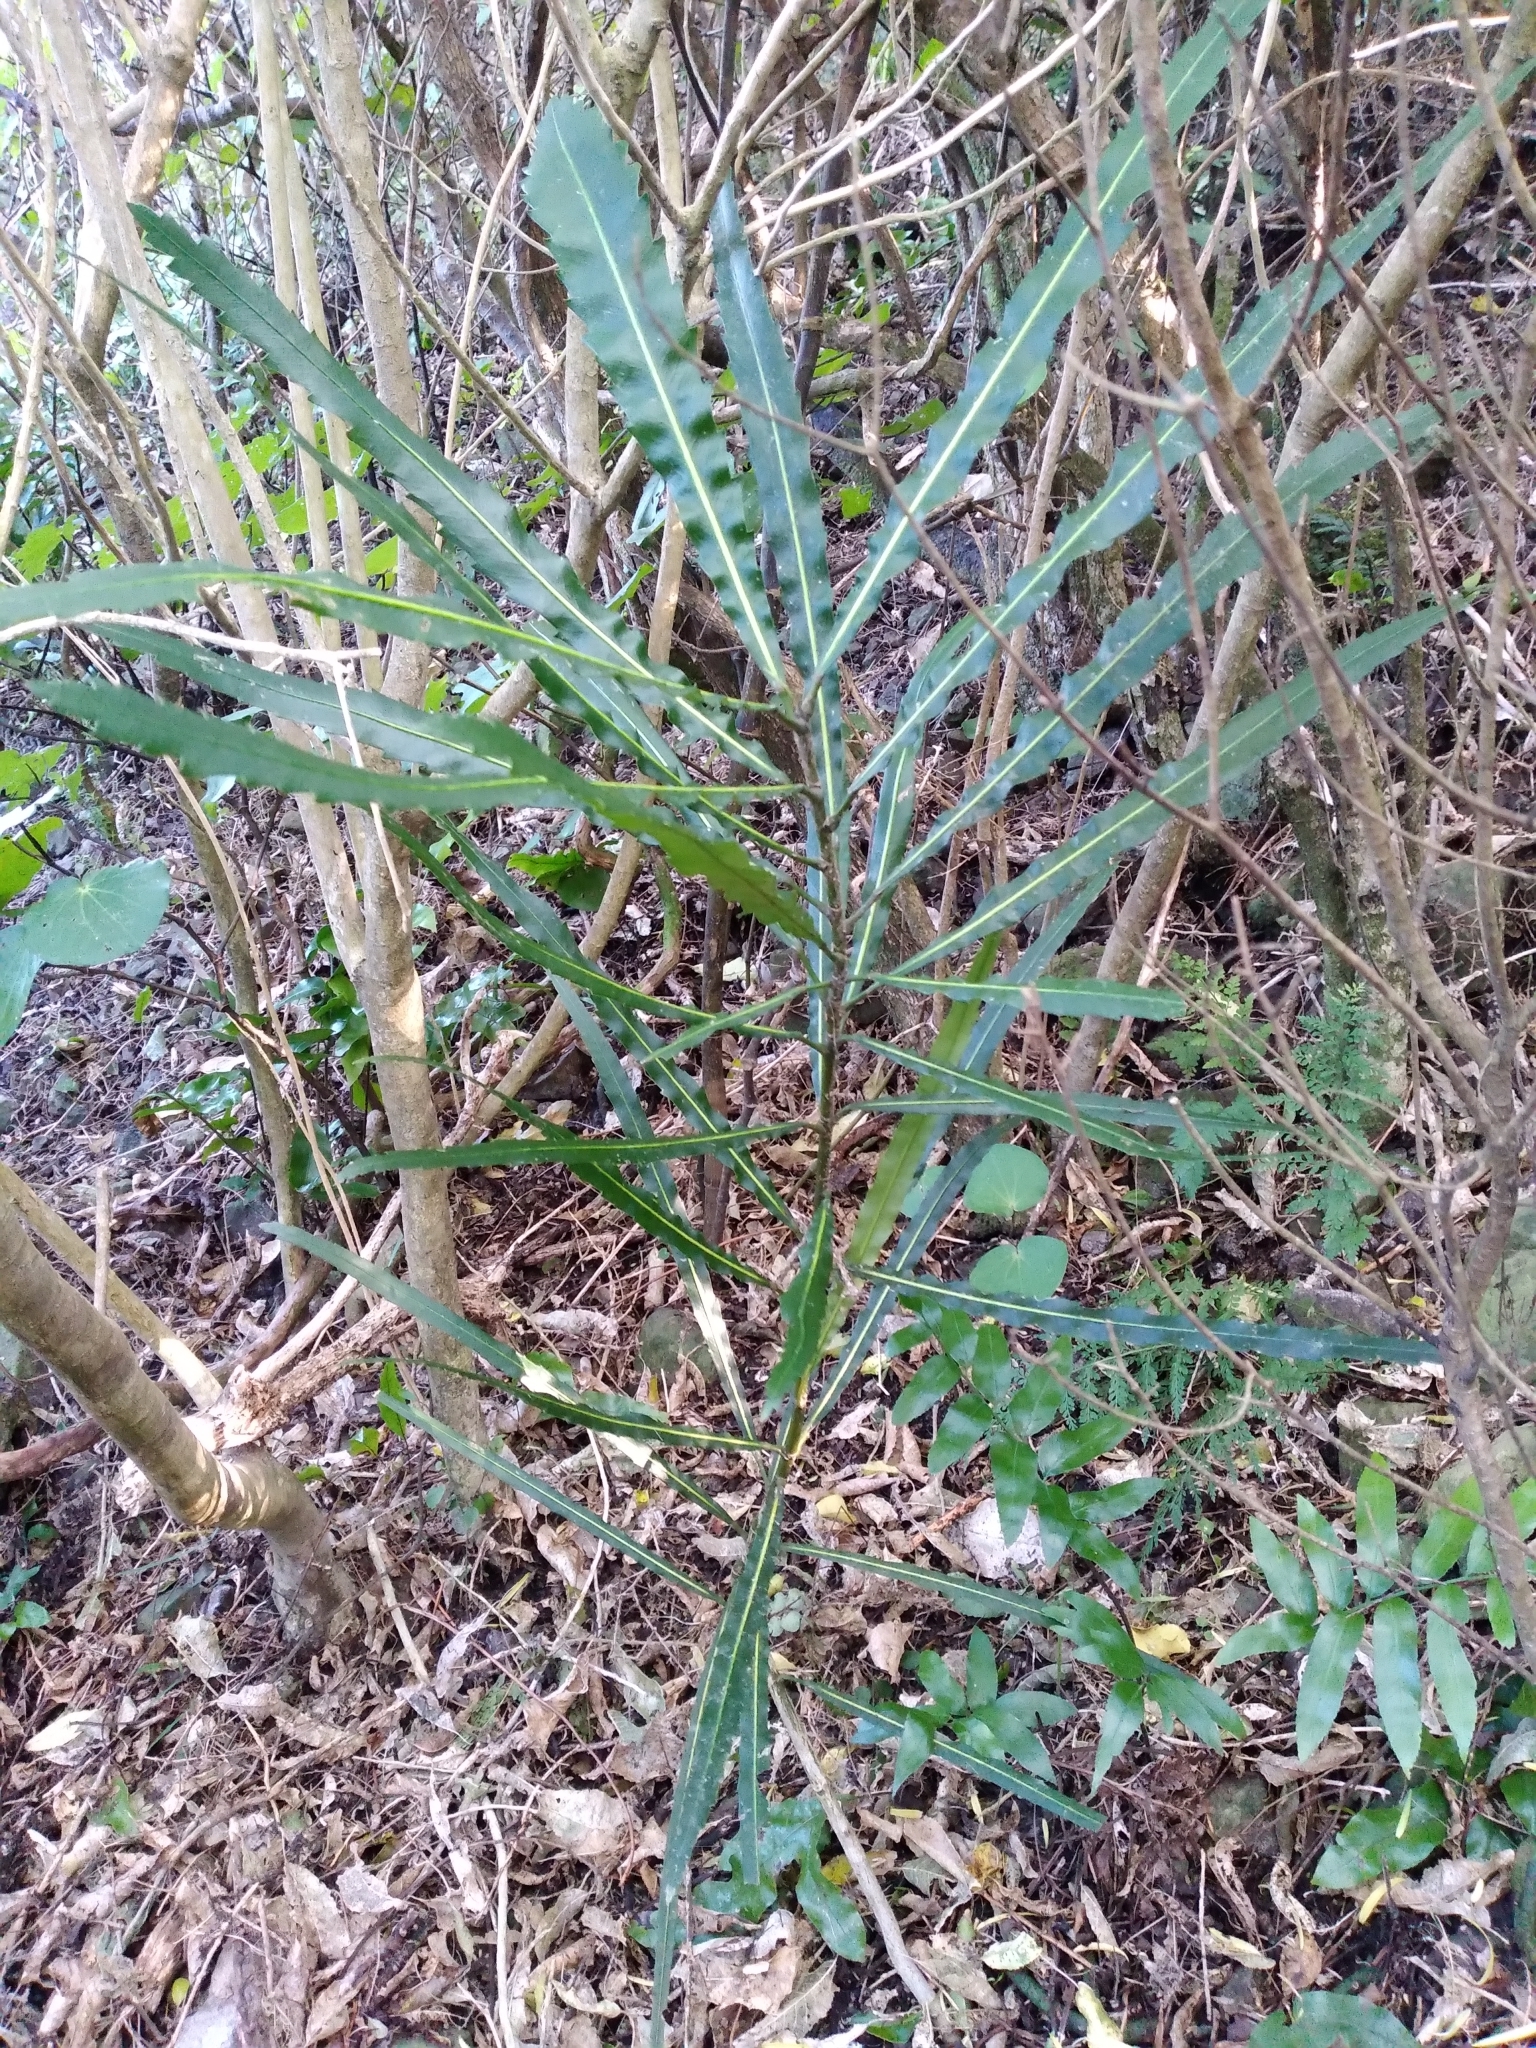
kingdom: Plantae
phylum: Tracheophyta
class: Magnoliopsida
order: Apiales
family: Araliaceae
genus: Pseudopanax
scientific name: Pseudopanax
